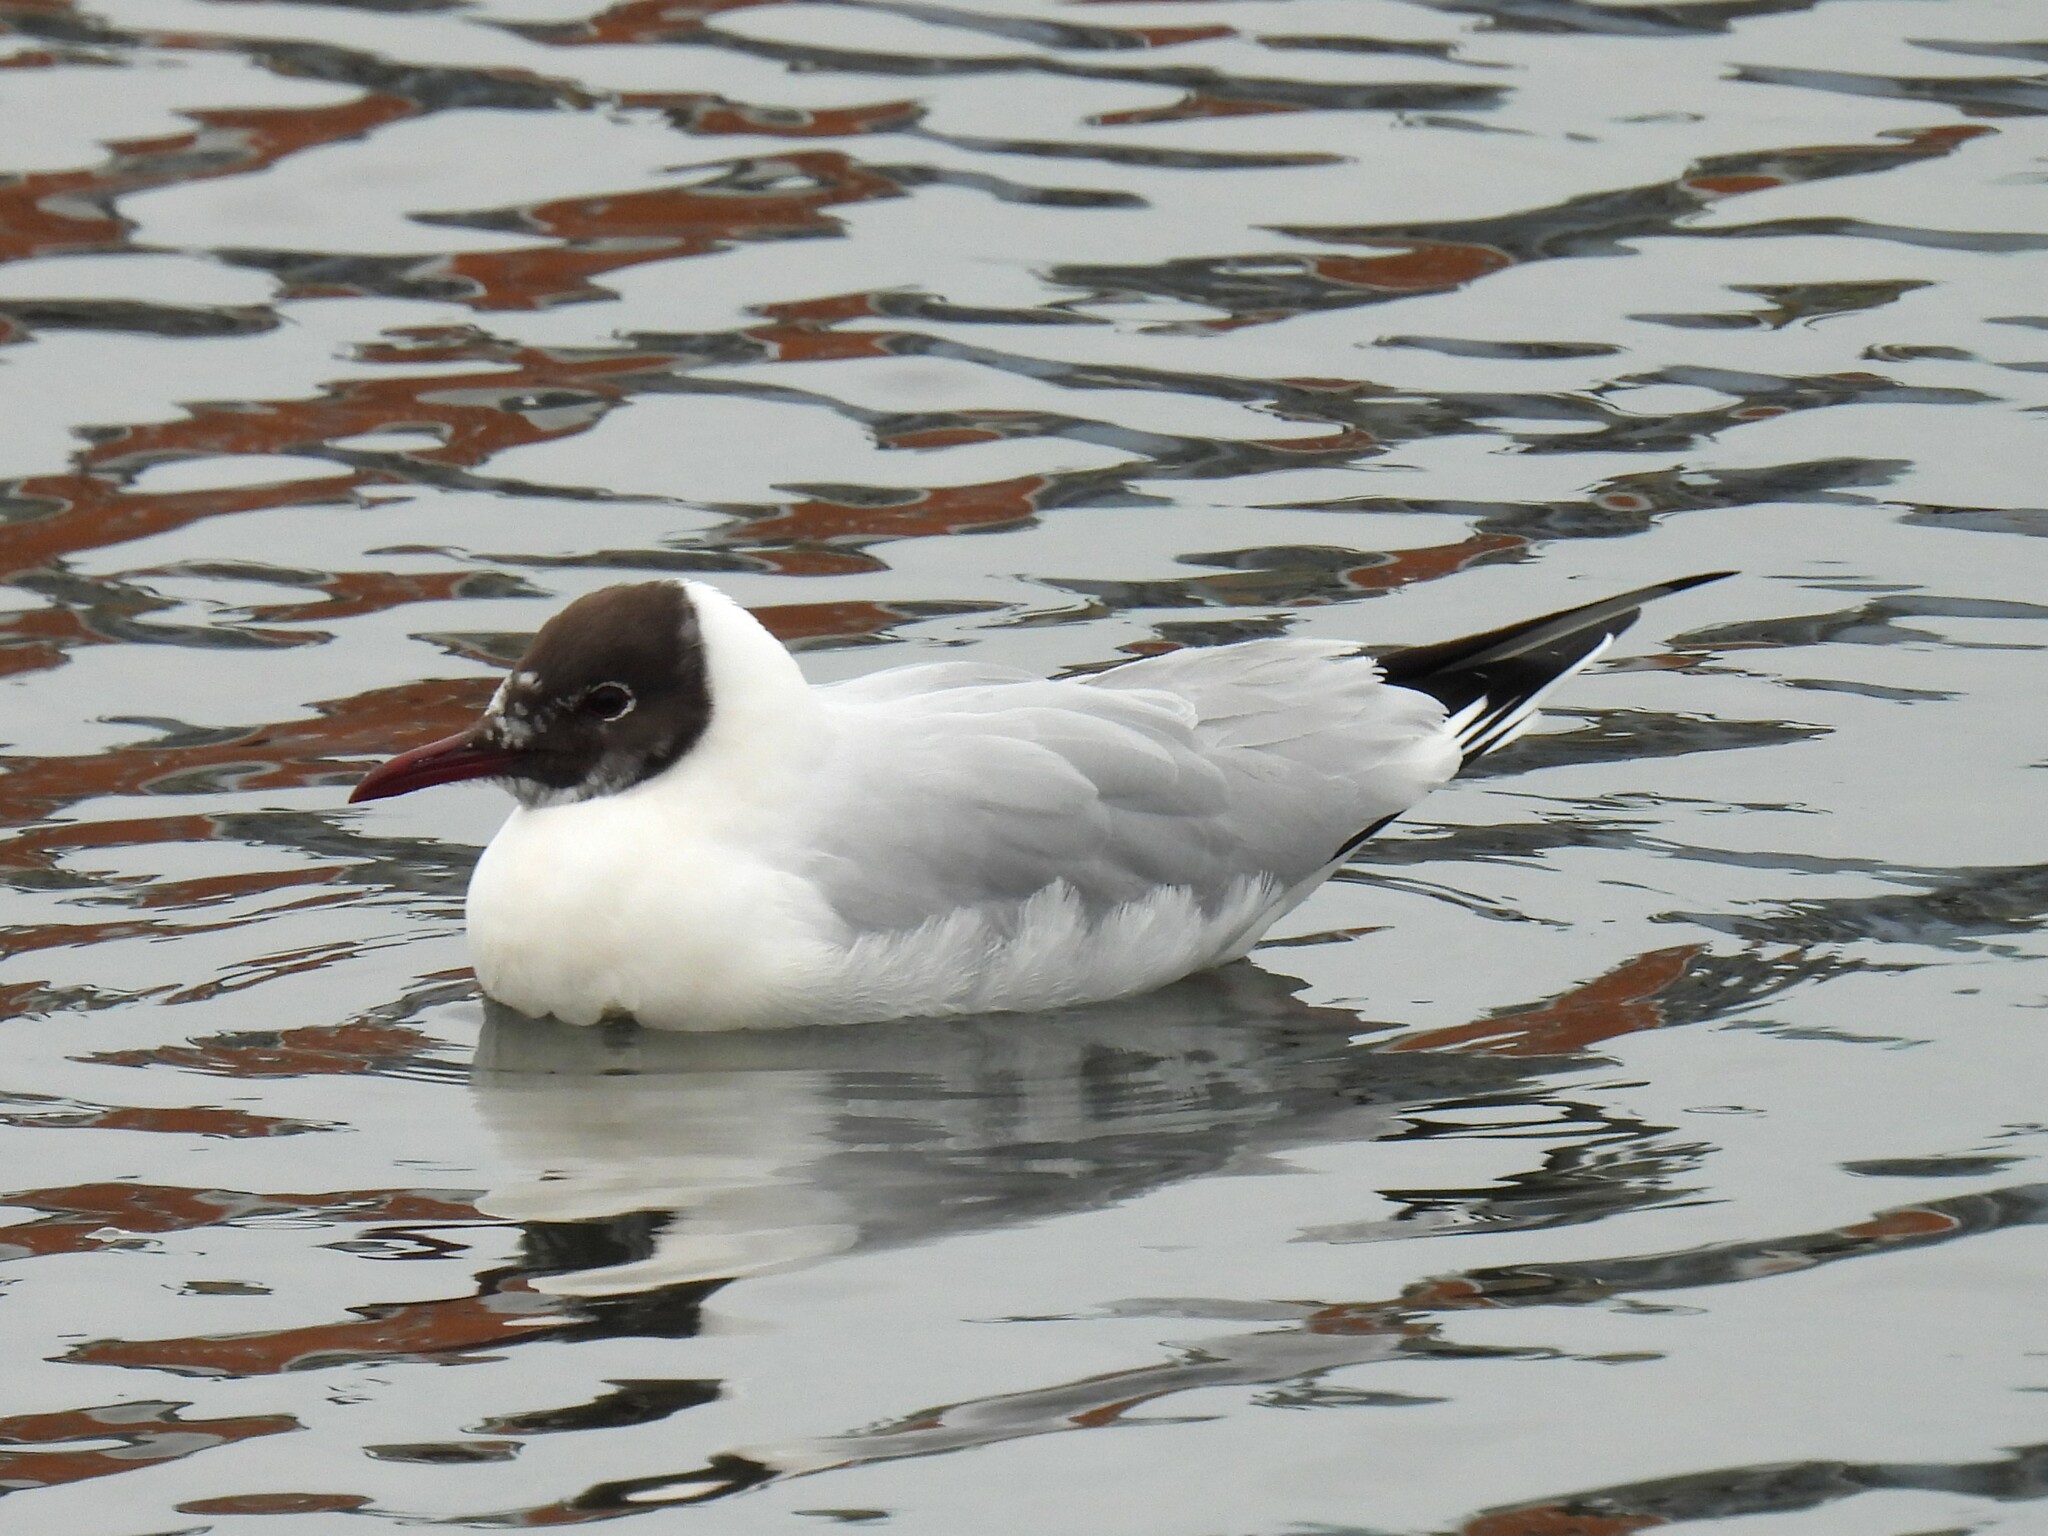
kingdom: Animalia
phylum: Chordata
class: Aves
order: Charadriiformes
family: Laridae
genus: Chroicocephalus
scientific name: Chroicocephalus ridibundus
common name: Black-headed gull
